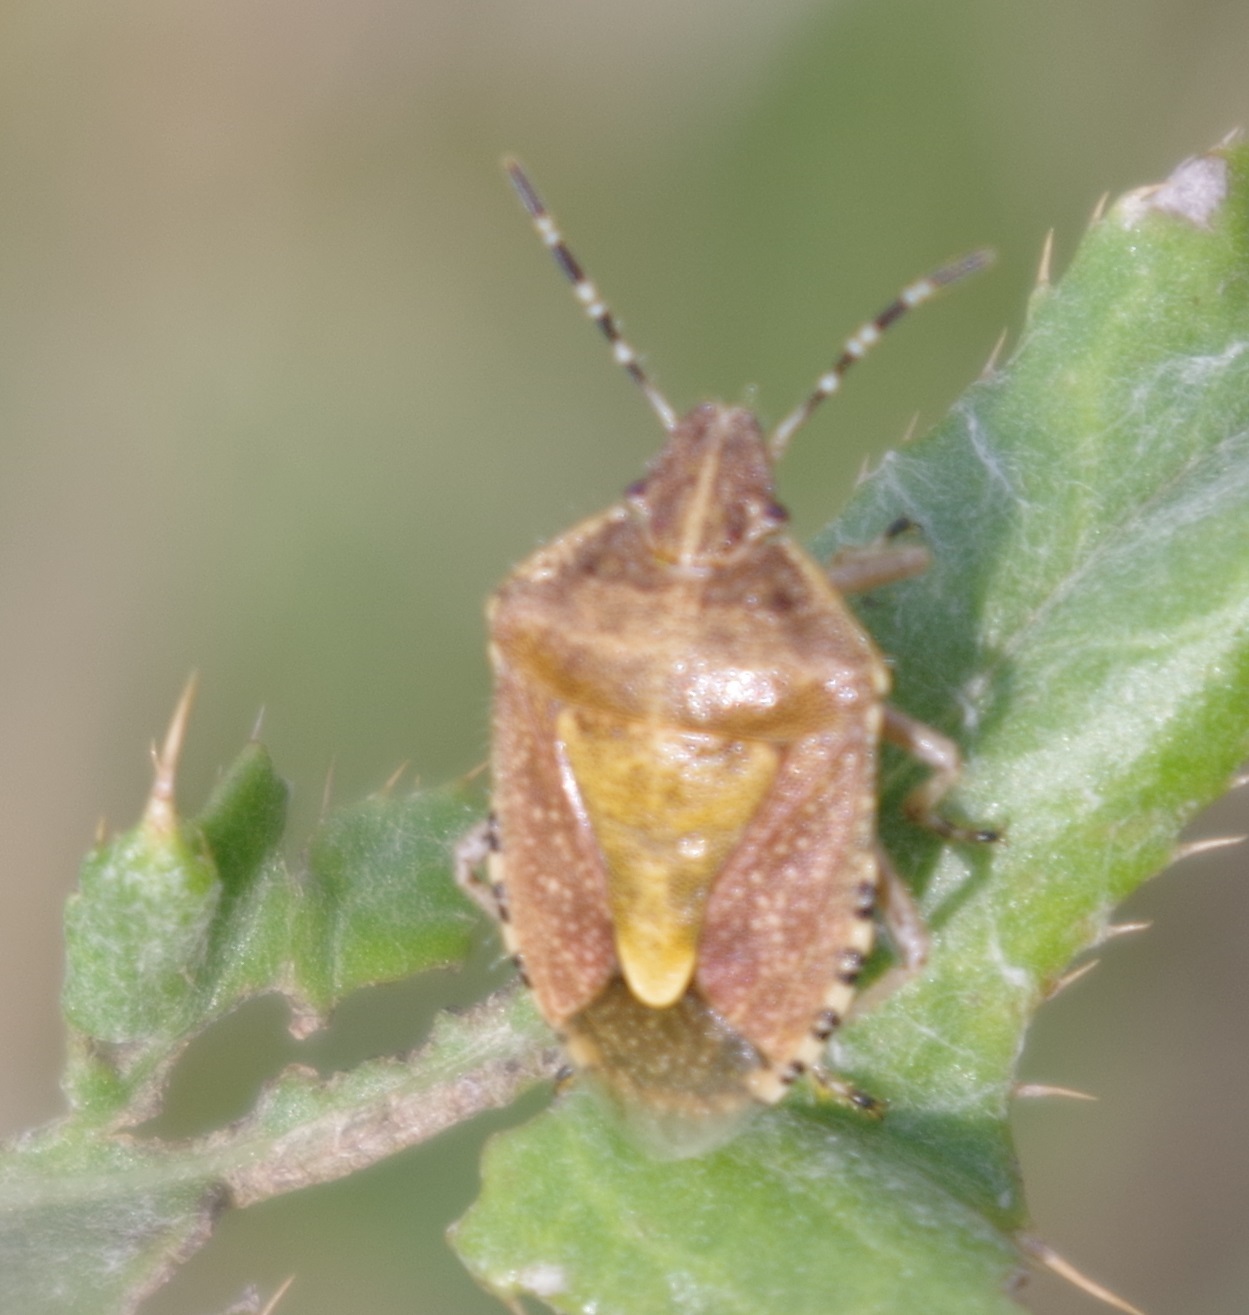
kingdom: Animalia
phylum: Arthropoda
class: Insecta
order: Hemiptera
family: Pentatomidae
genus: Dolycoris
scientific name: Dolycoris baccarum
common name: Sloe bug
